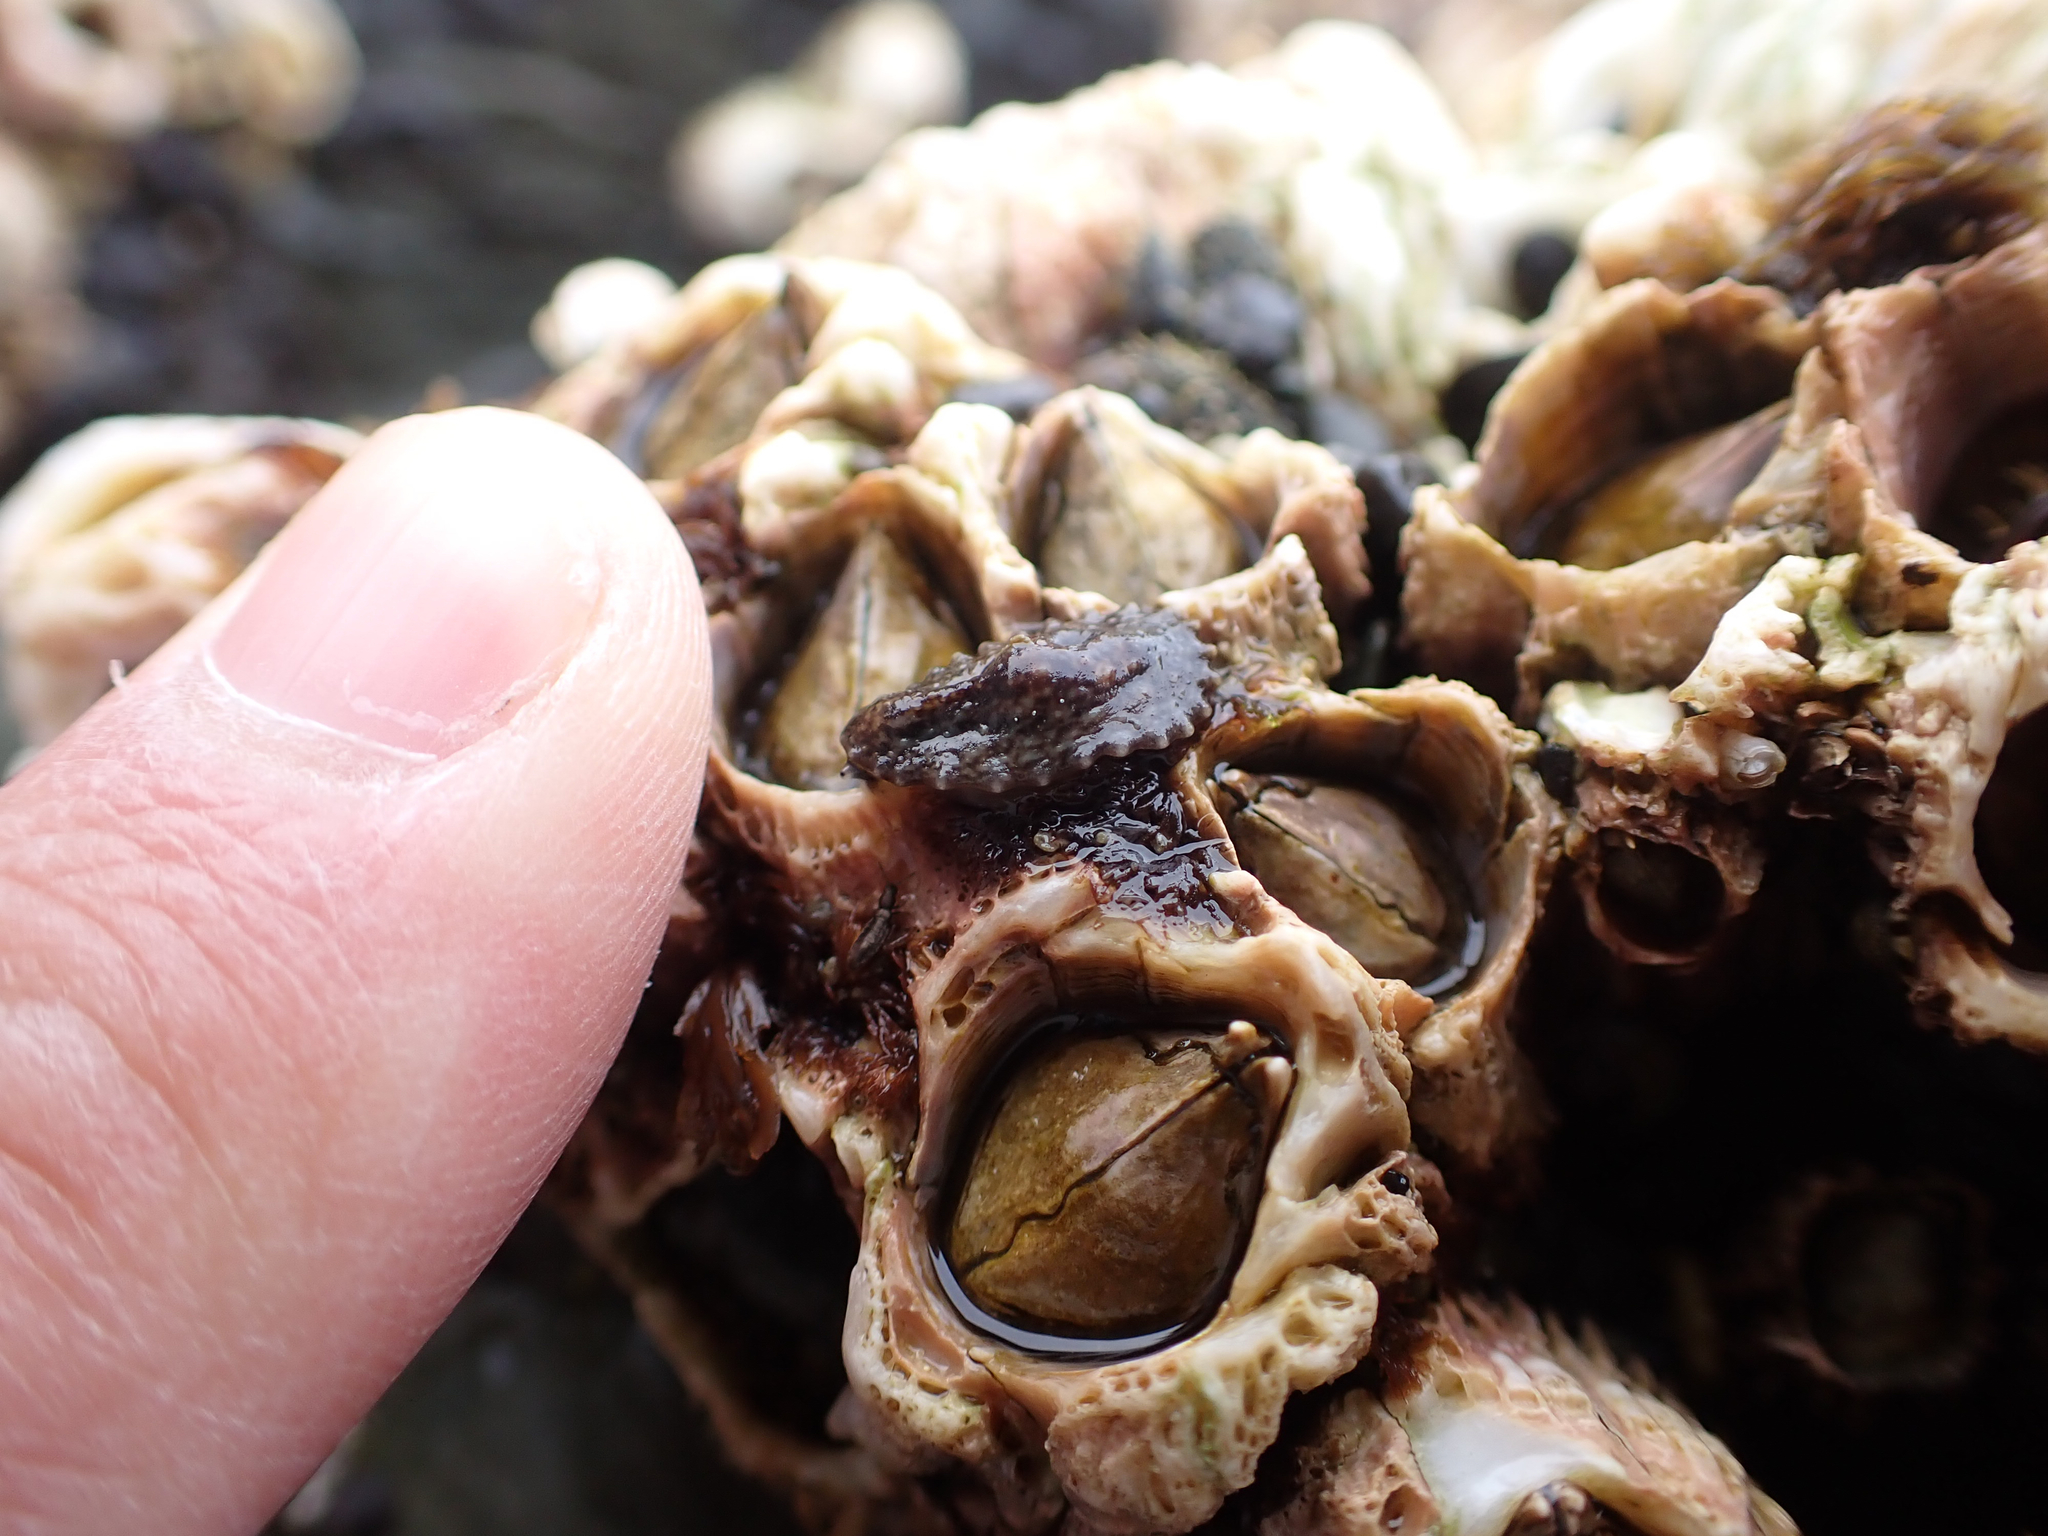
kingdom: Animalia
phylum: Mollusca
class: Gastropoda
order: Systellommatophora
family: Onchidiidae
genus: Onchidella
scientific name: Onchidella carpenteri
